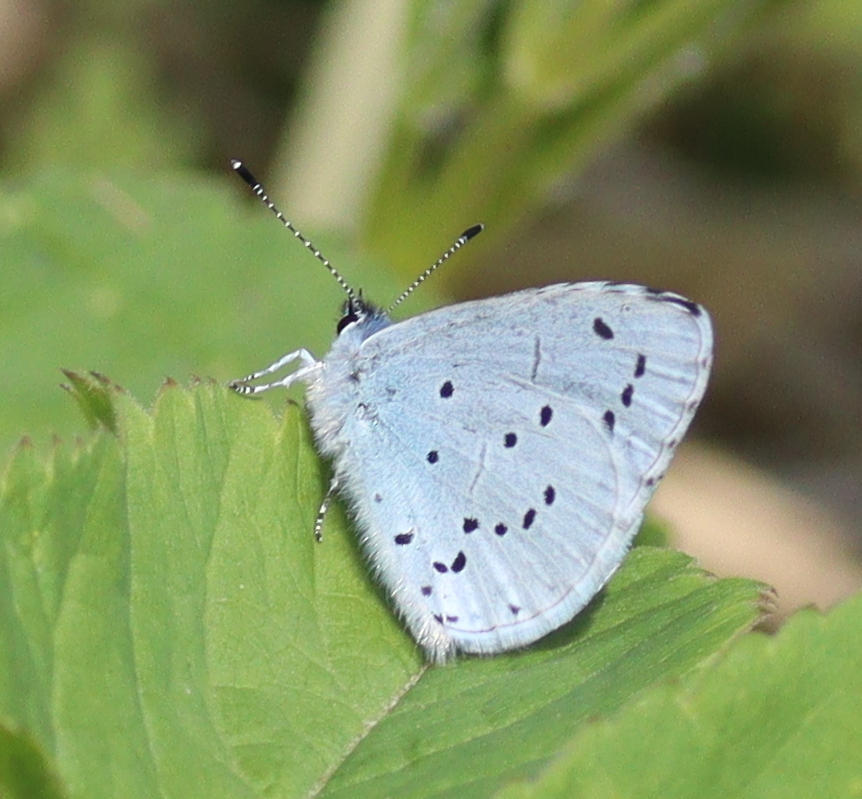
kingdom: Animalia
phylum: Arthropoda
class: Insecta
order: Lepidoptera
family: Lycaenidae
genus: Celastrina
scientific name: Celastrina argiolus
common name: Holly blue
